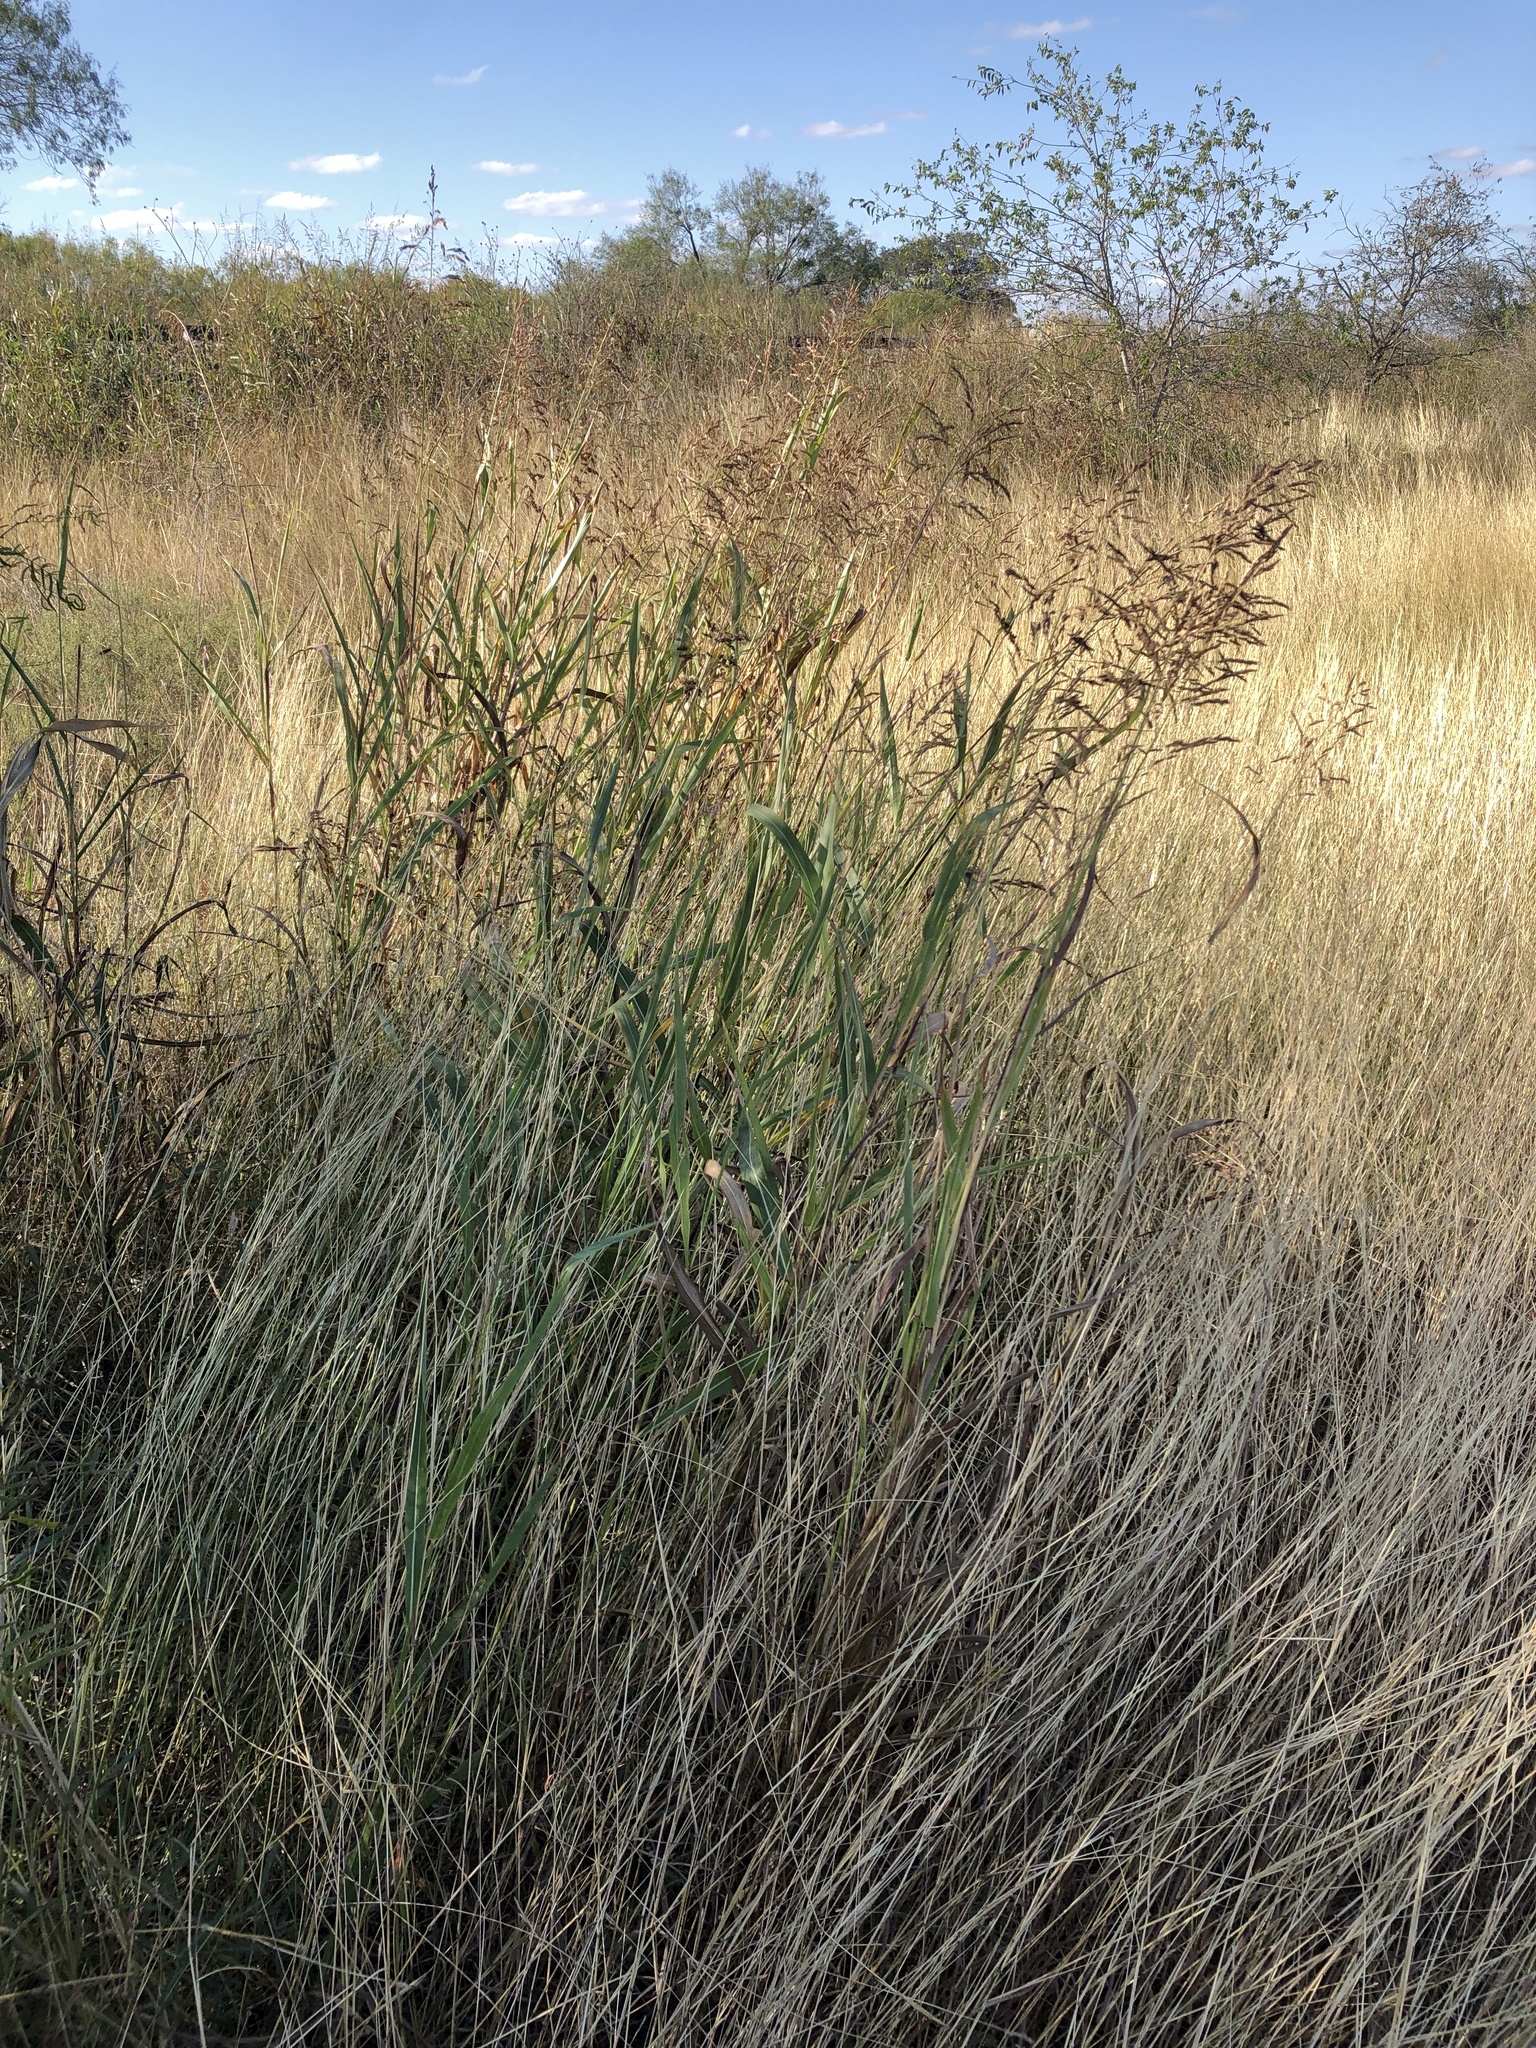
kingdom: Plantae
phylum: Tracheophyta
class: Liliopsida
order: Poales
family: Poaceae
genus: Sorghum
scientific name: Sorghum halepense
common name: Johnson-grass
